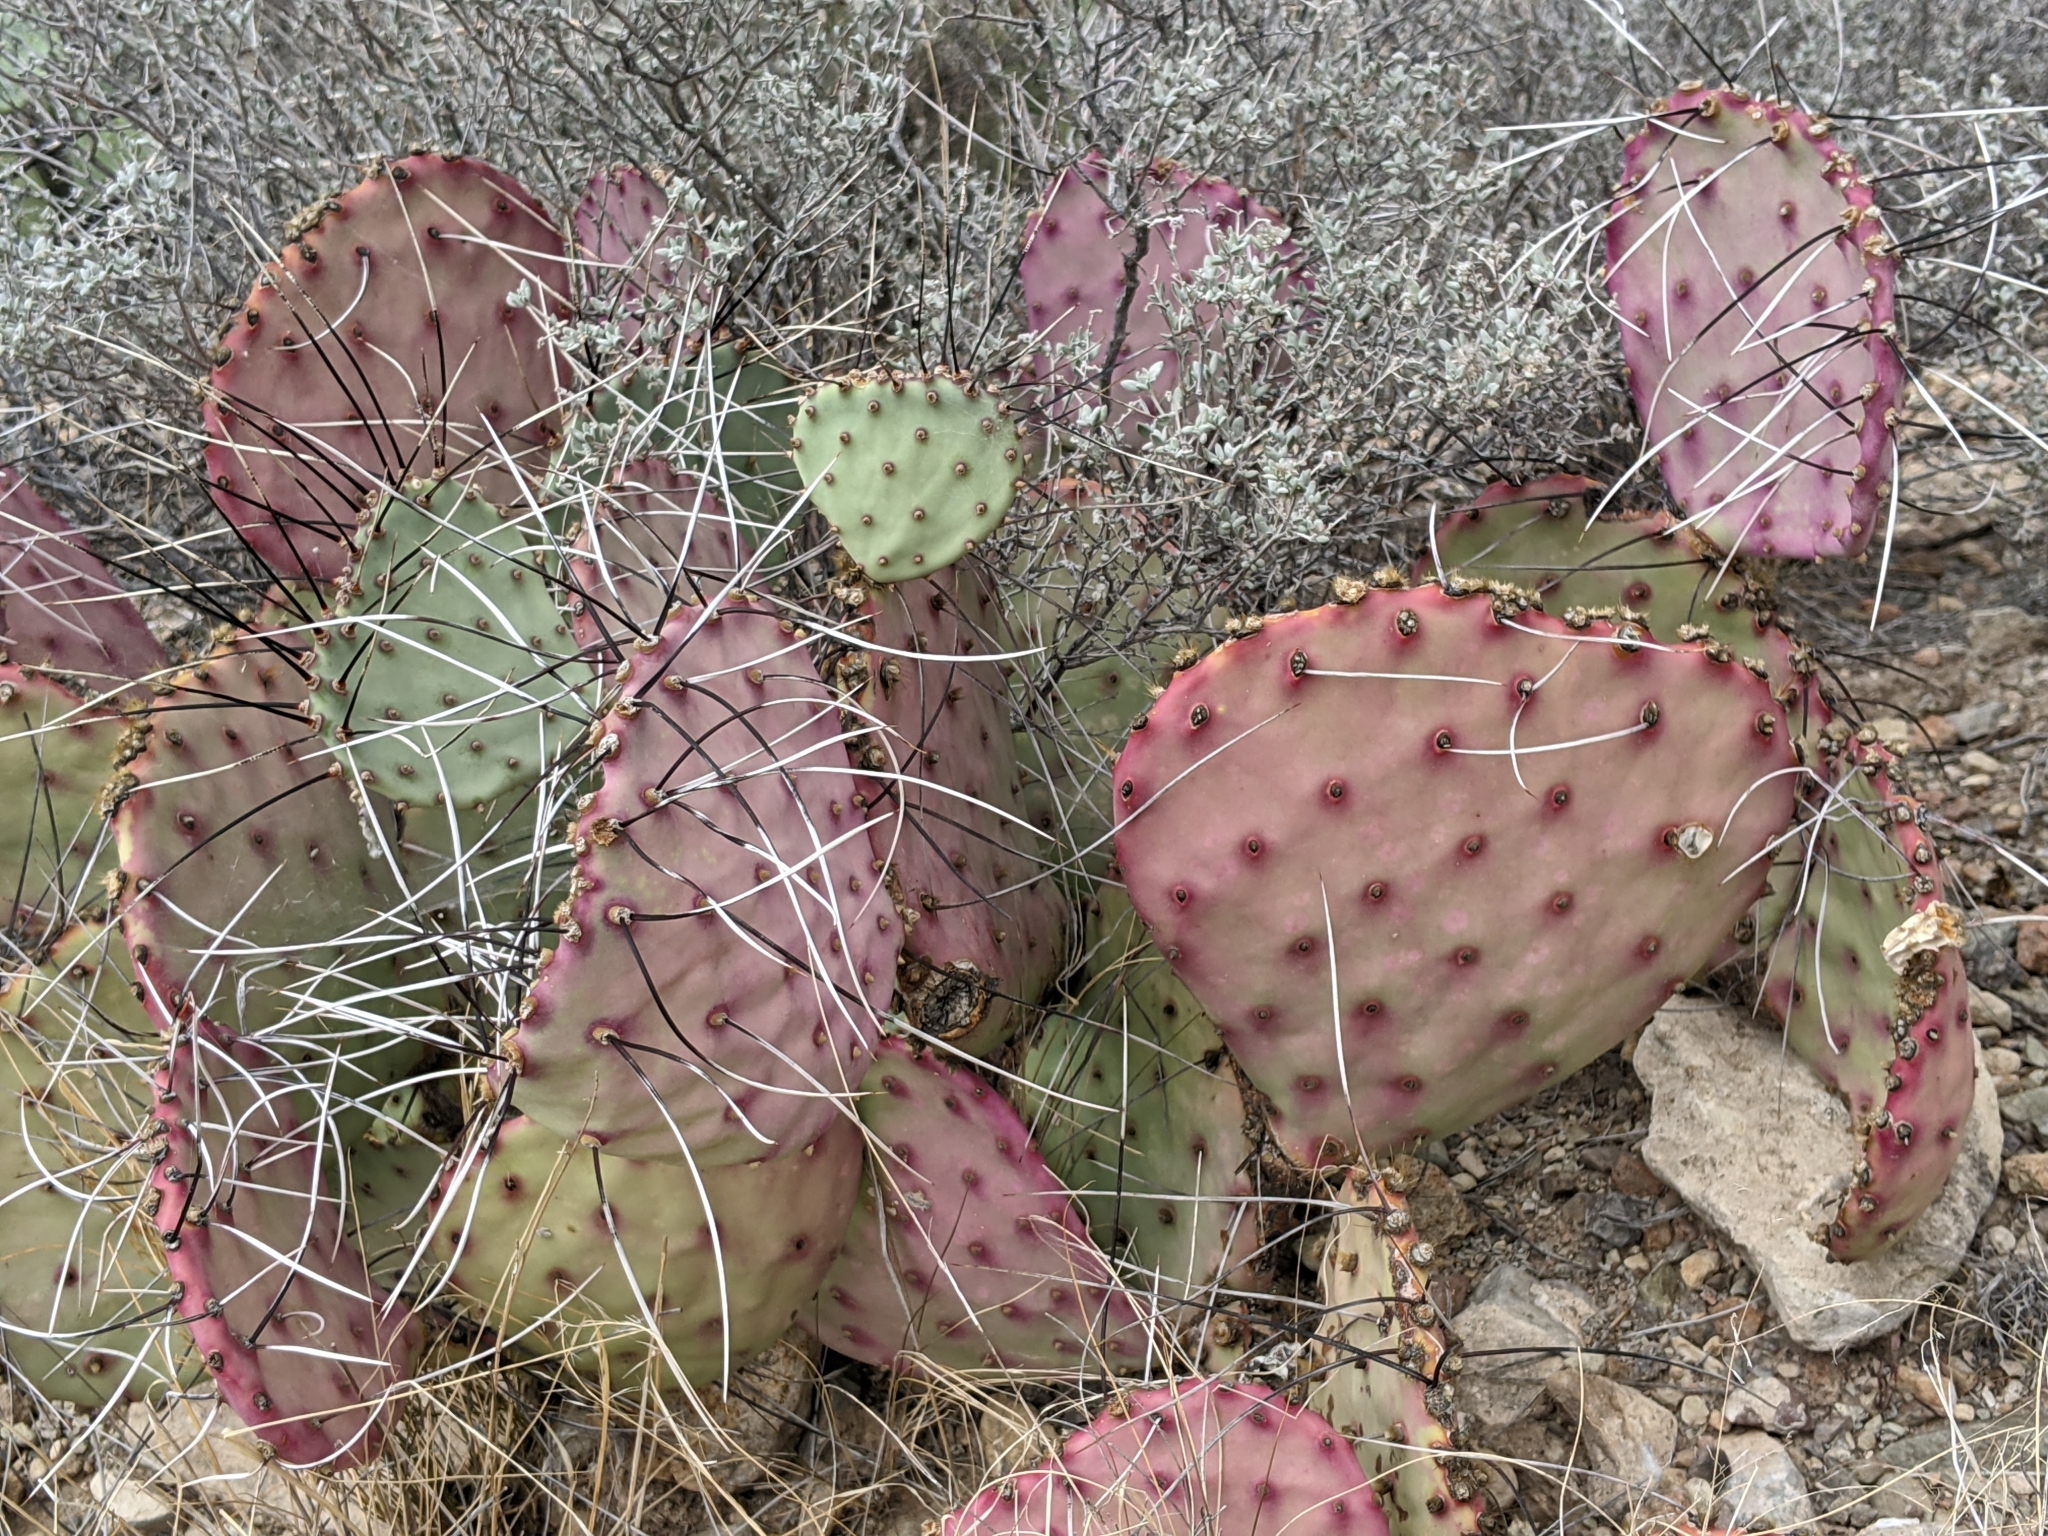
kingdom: Plantae
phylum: Tracheophyta
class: Magnoliopsida
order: Caryophyllales
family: Cactaceae
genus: Opuntia
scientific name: Opuntia phaeacantha
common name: New mexico prickly-pear
